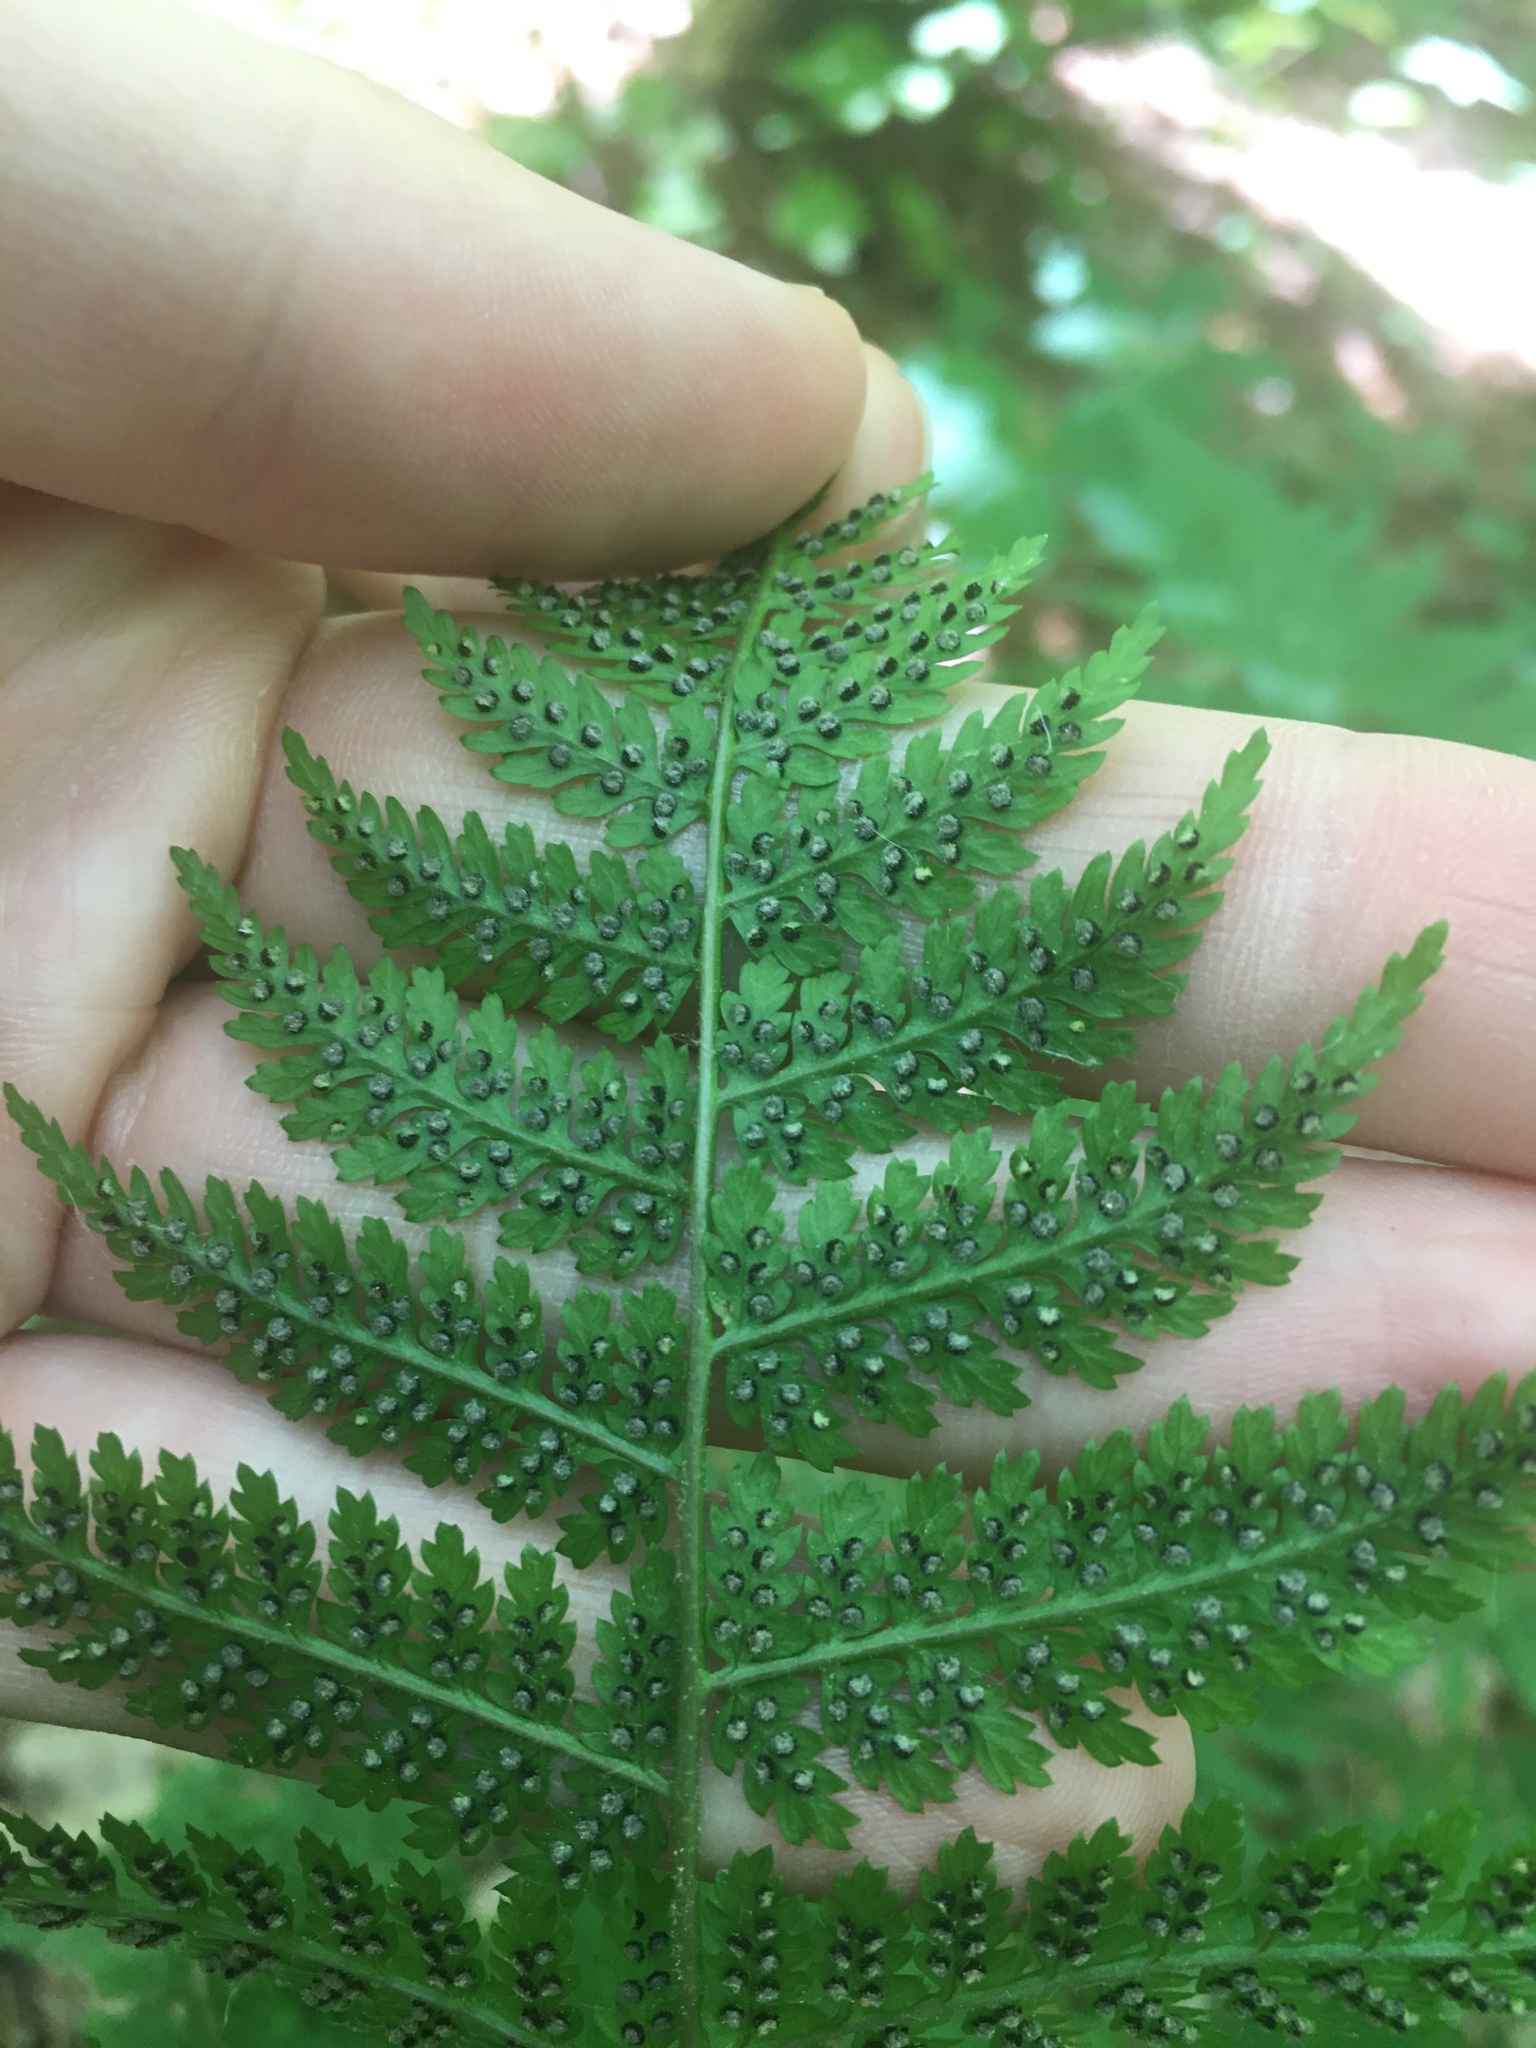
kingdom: Plantae
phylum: Tracheophyta
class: Polypodiopsida
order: Polypodiales
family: Dryopteridaceae
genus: Dryopteris
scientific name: Dryopteris intermedia
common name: Evergreen wood fern
